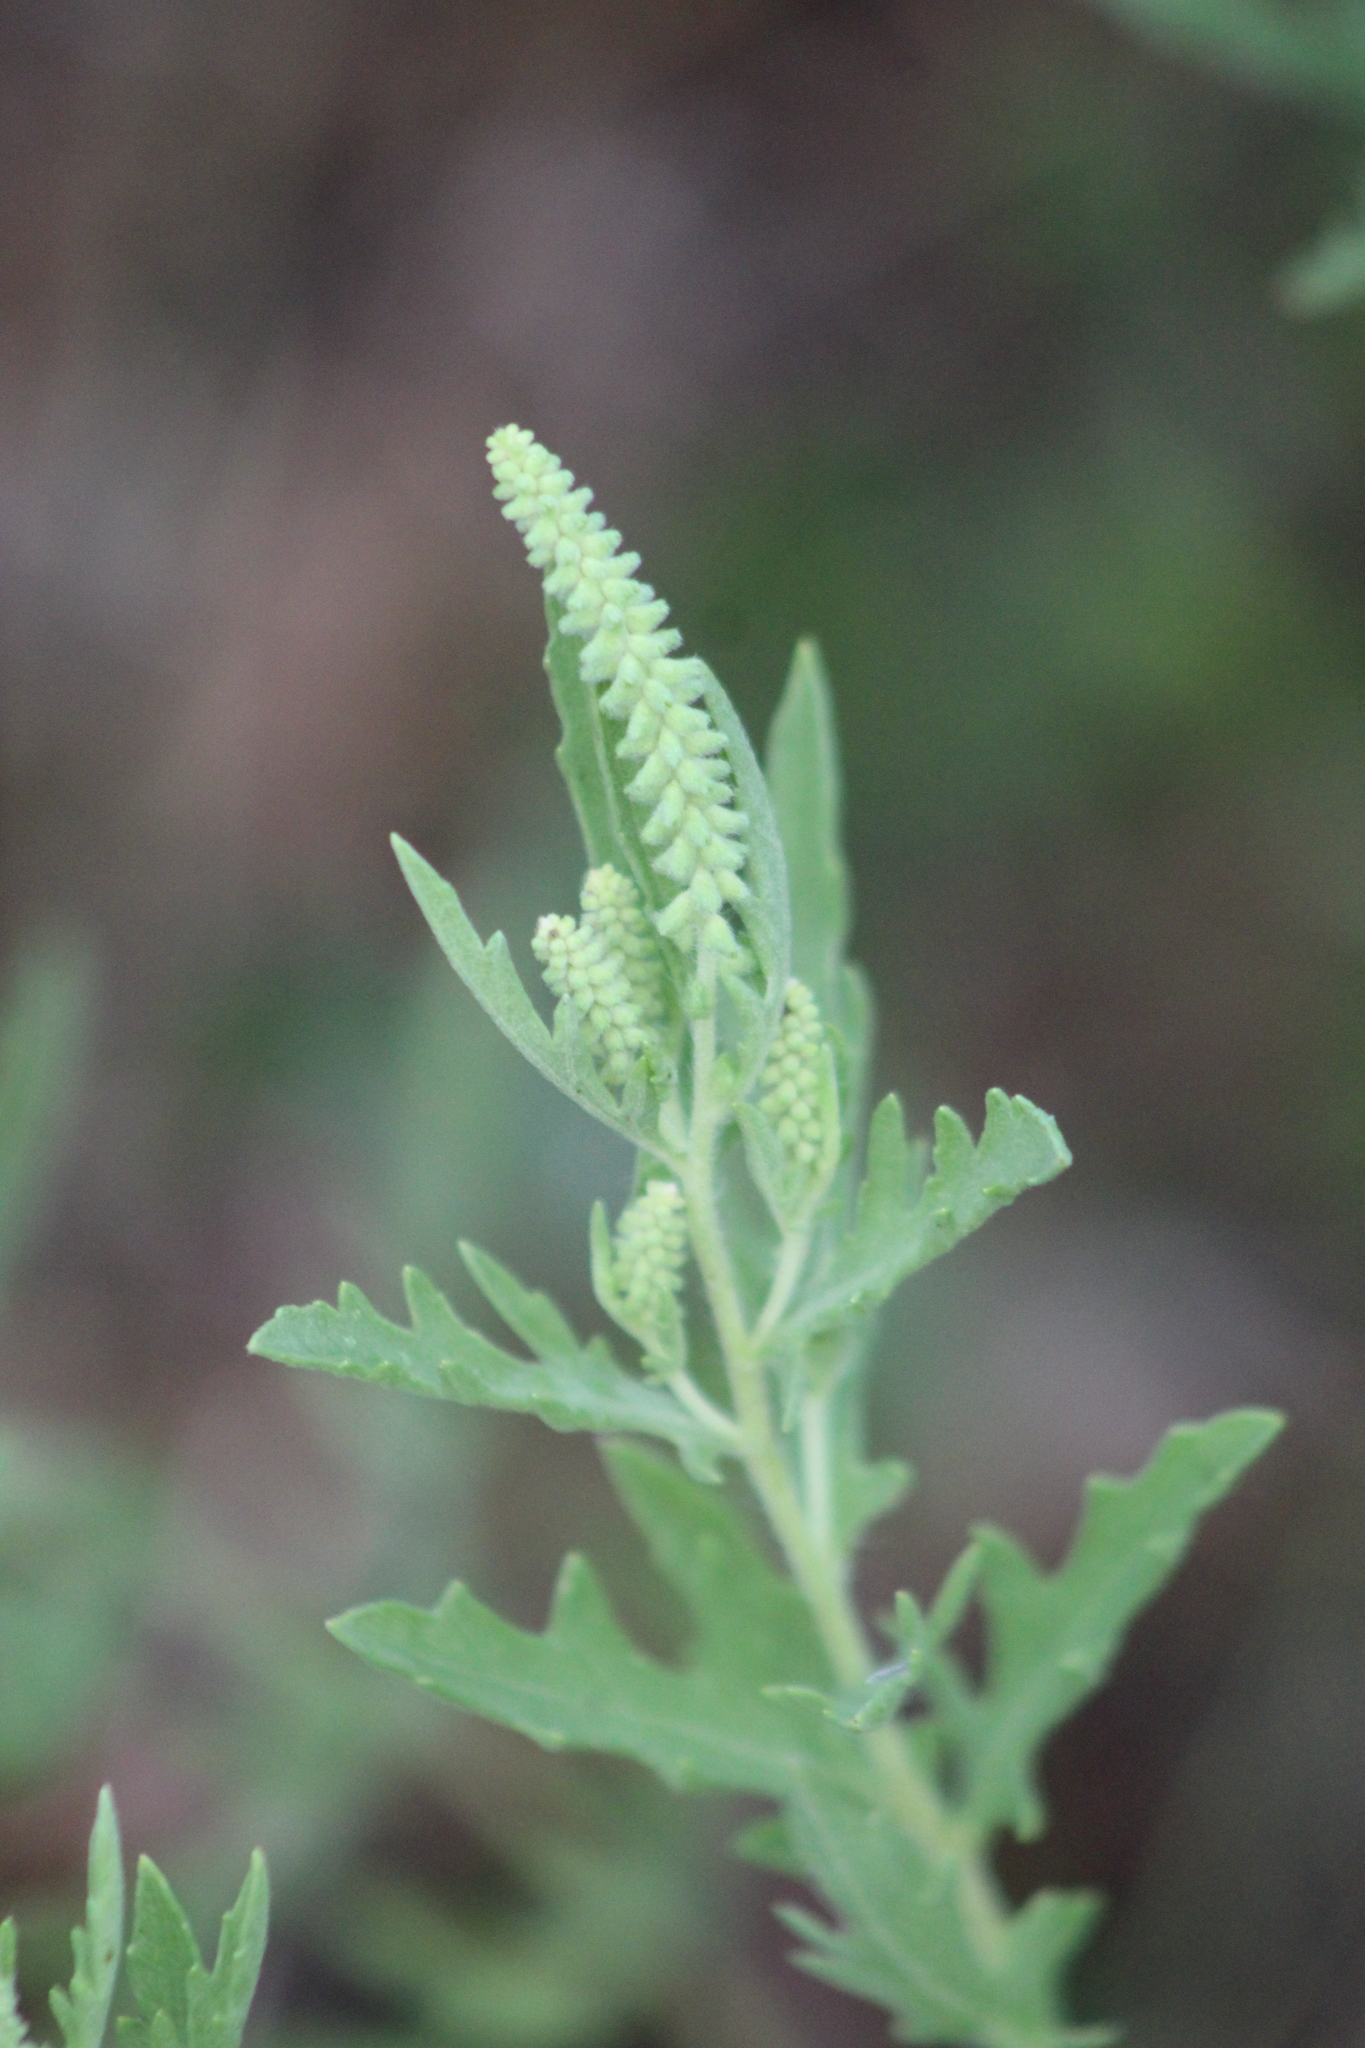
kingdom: Plantae
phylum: Tracheophyta
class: Magnoliopsida
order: Asterales
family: Asteraceae
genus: Ambrosia
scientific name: Ambrosia psilostachya
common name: Perennial ragweed
